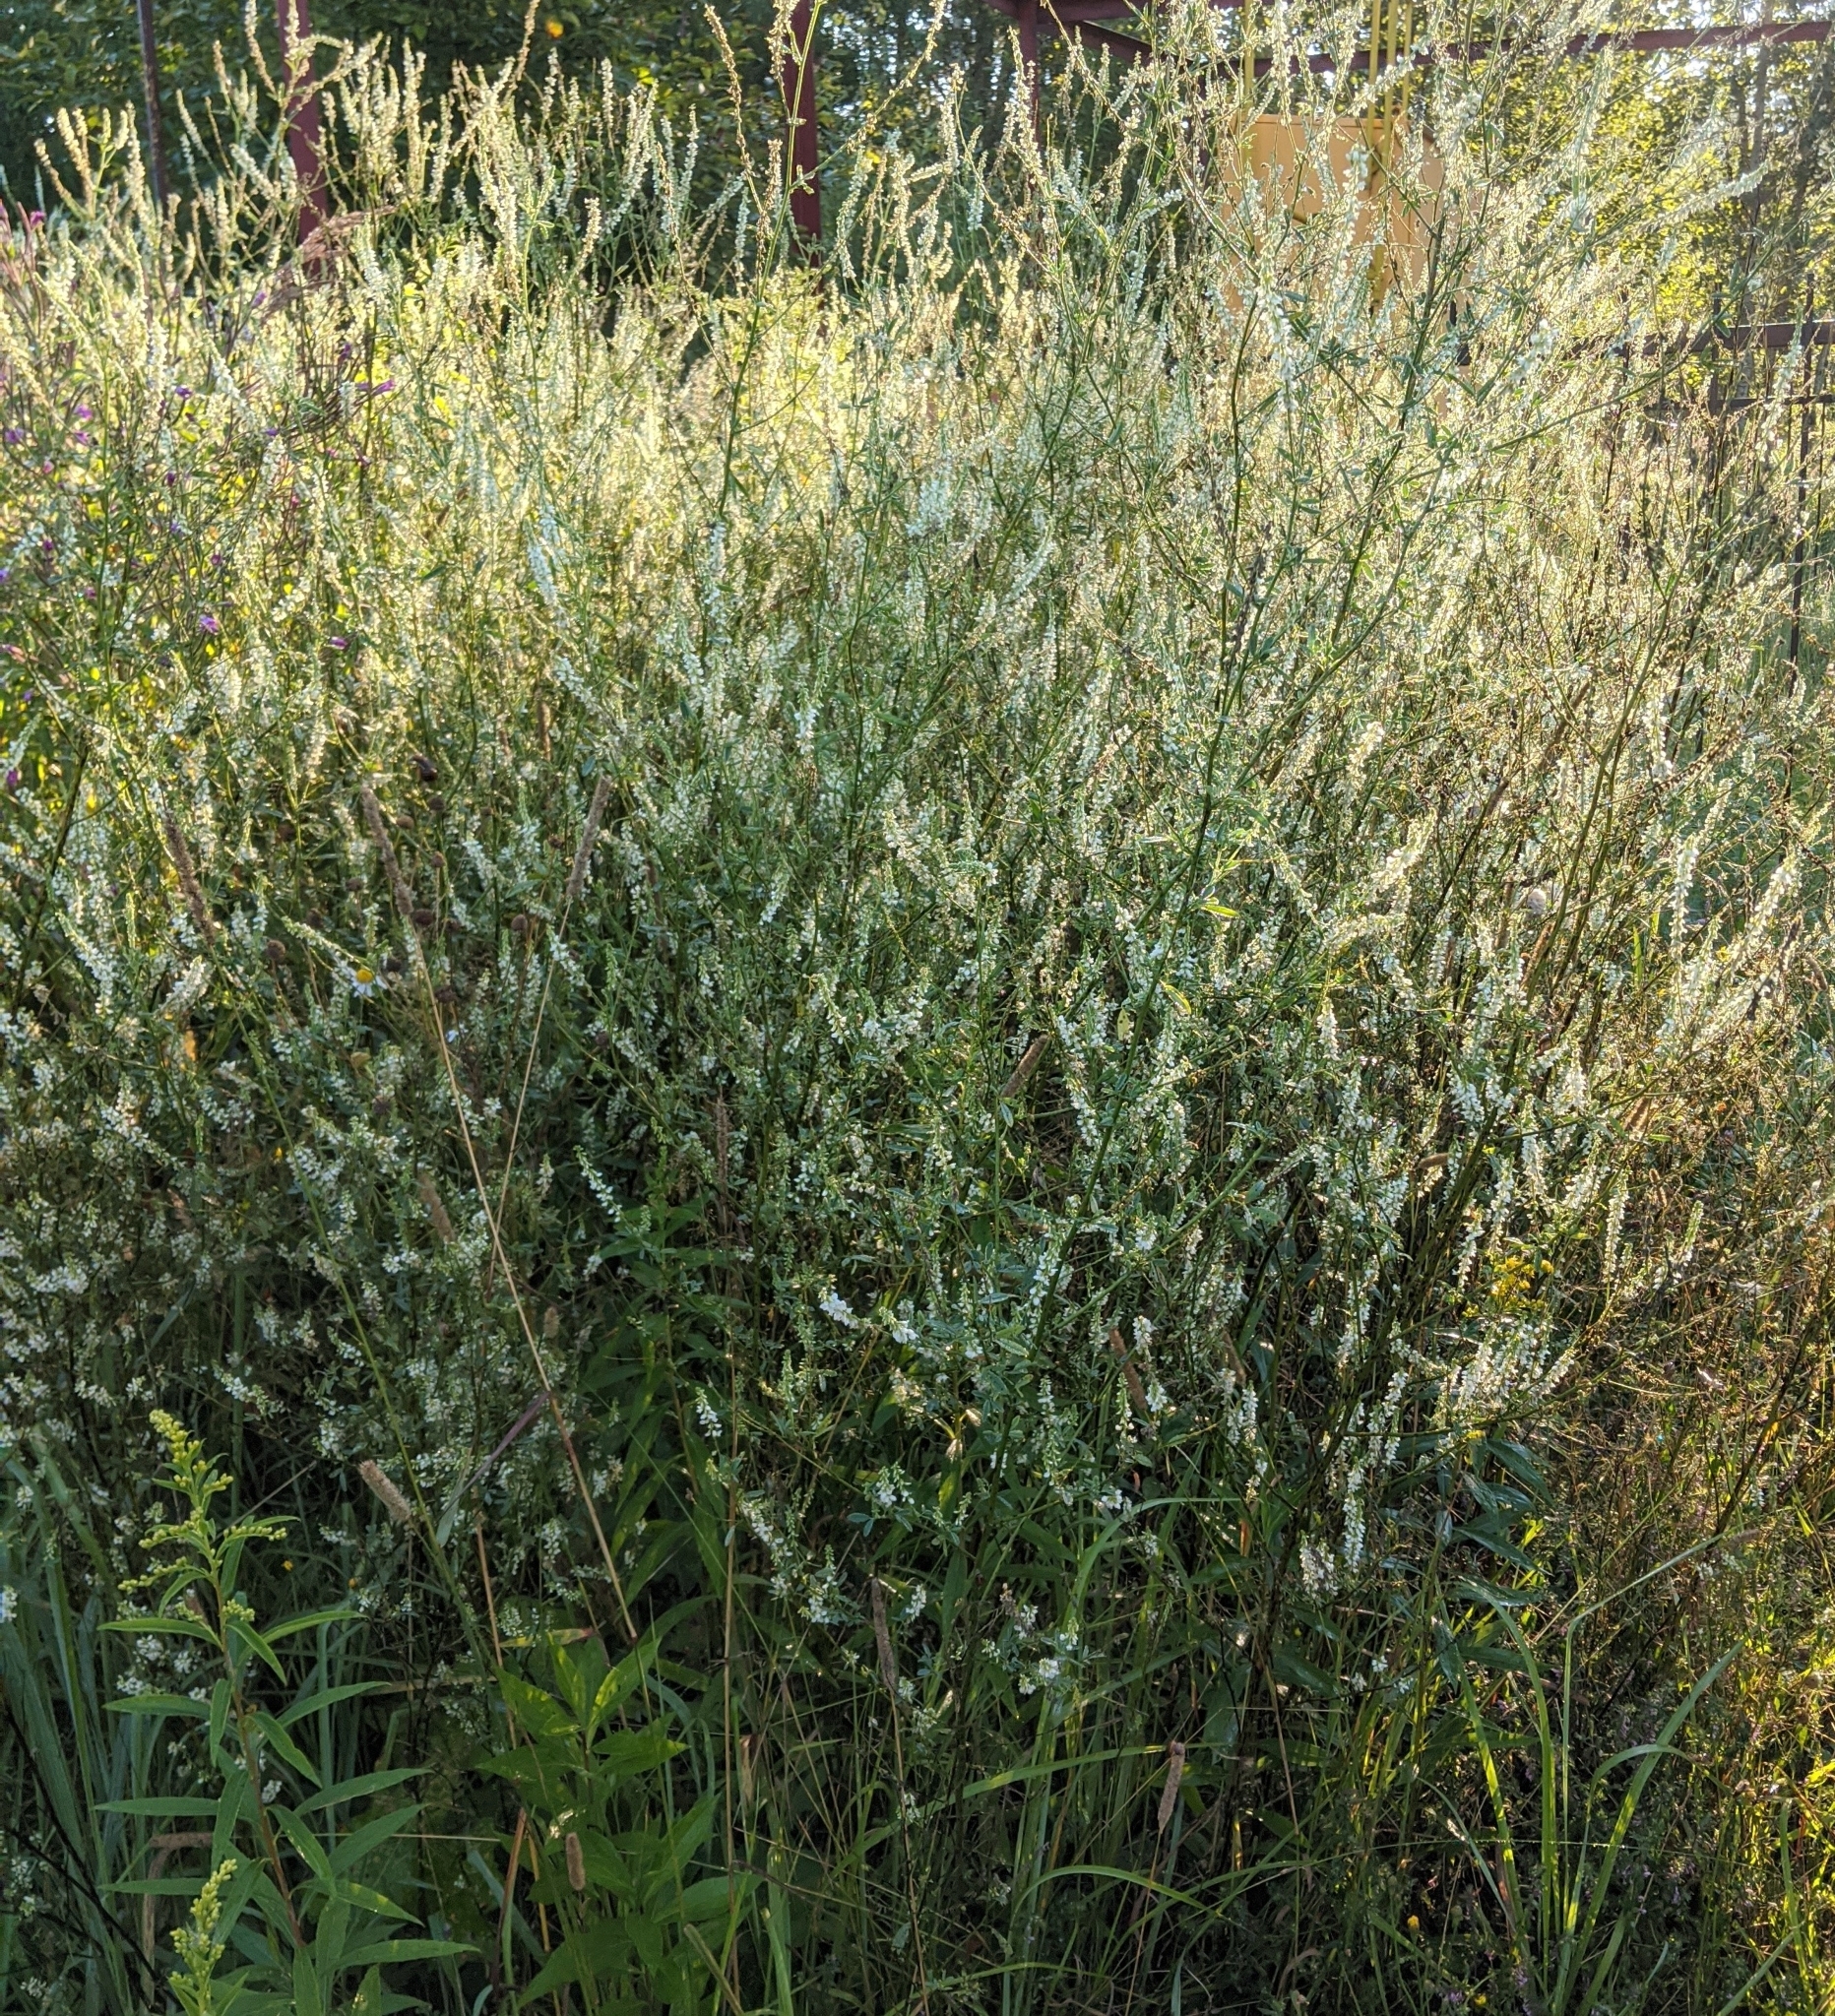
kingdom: Plantae
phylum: Tracheophyta
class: Magnoliopsida
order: Fabales
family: Fabaceae
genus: Melilotus
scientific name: Melilotus albus
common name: White melilot
